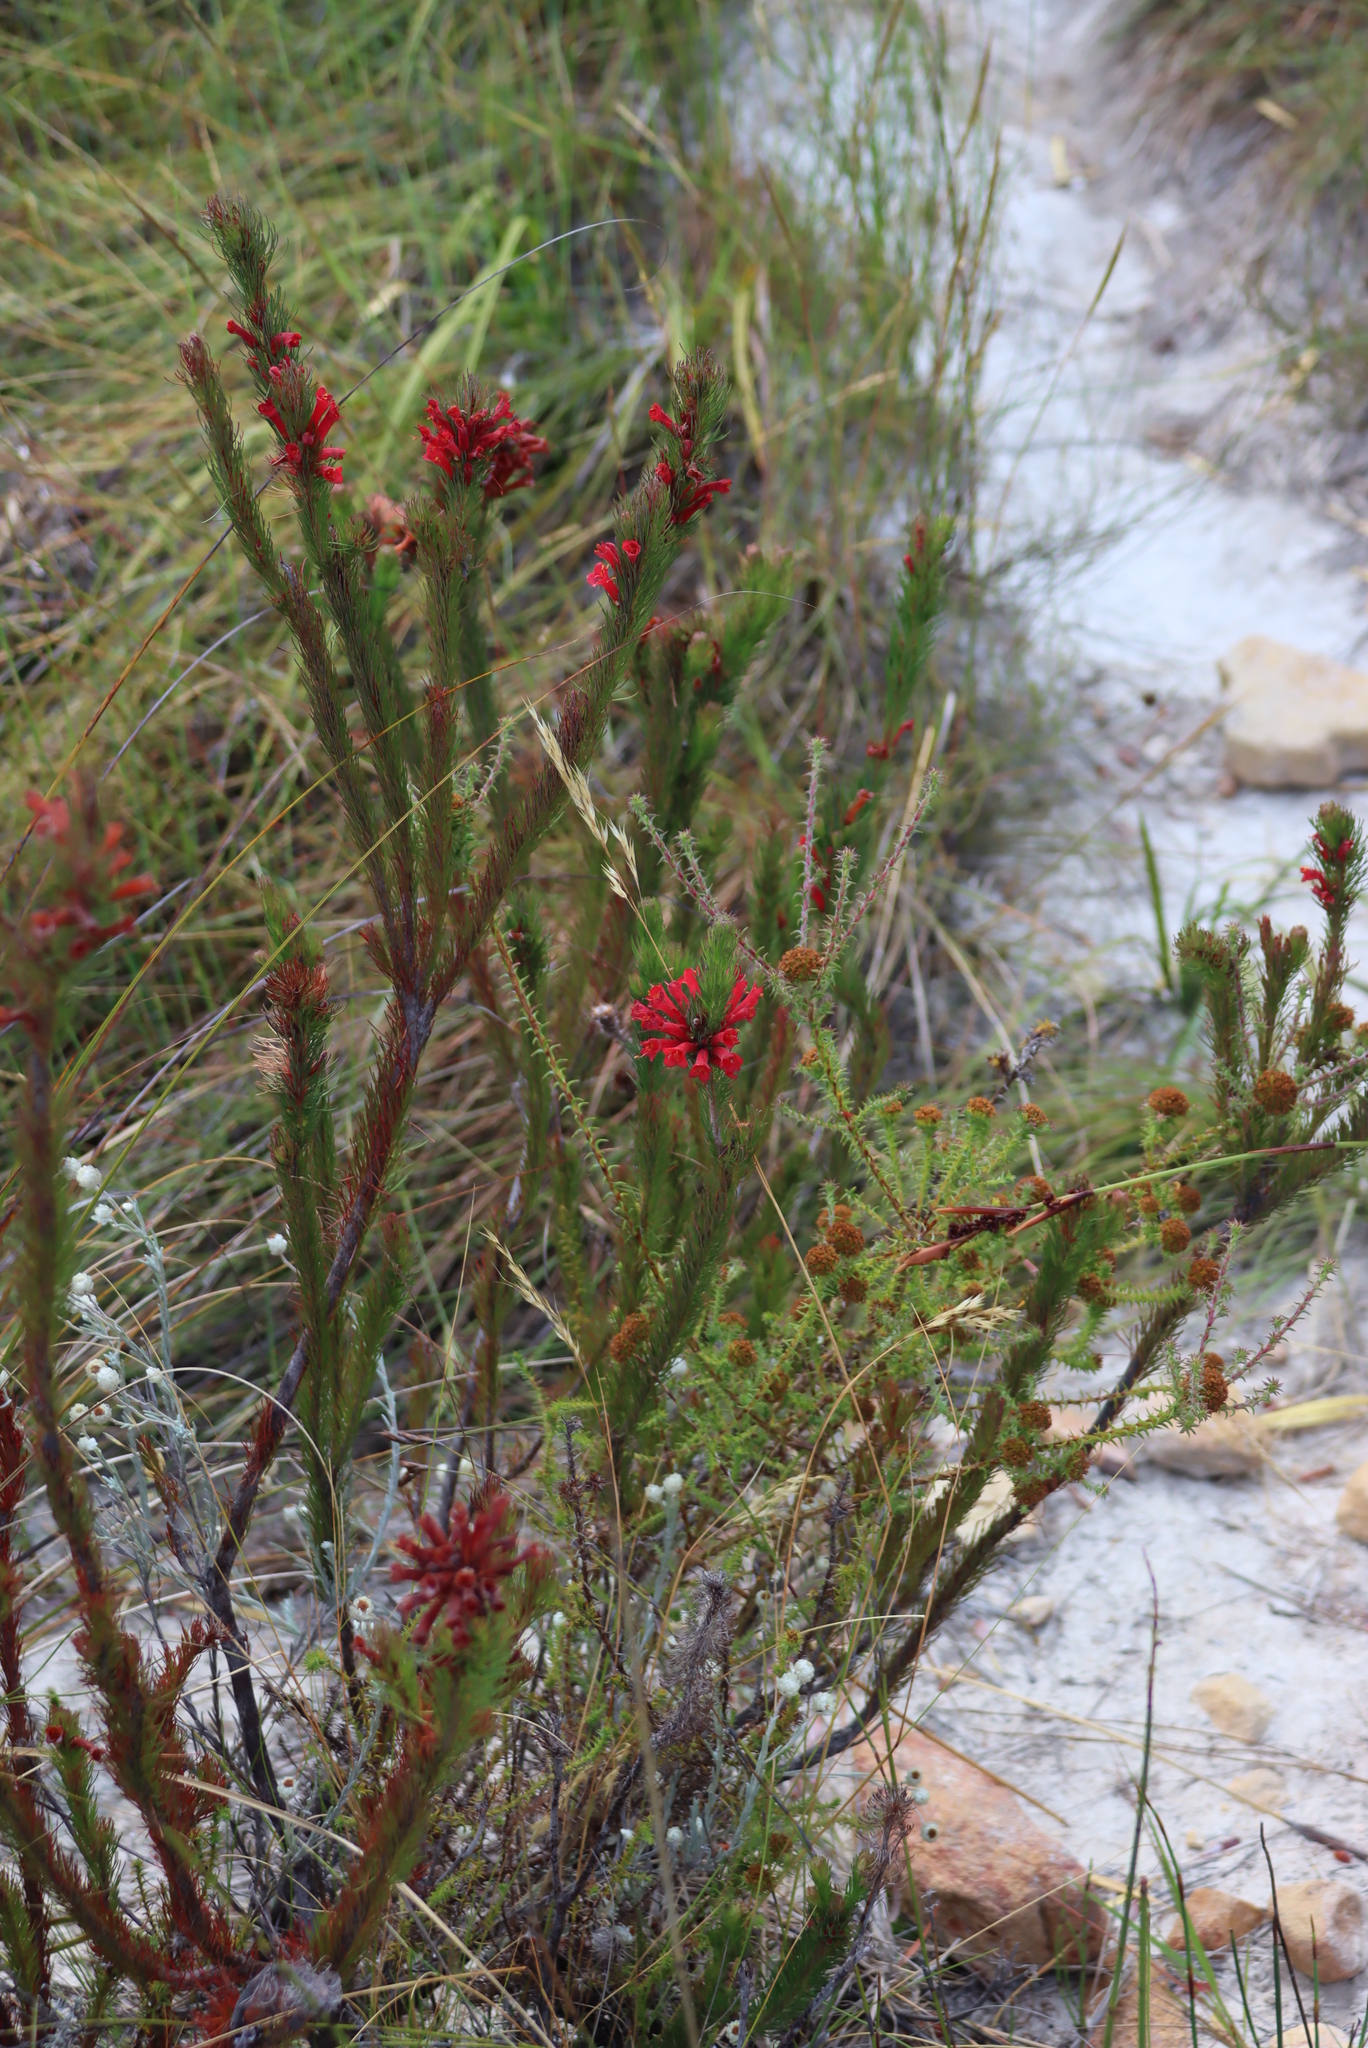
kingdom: Plantae
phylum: Tracheophyta
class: Magnoliopsida
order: Ericales
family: Ericaceae
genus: Erica
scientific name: Erica vestita
